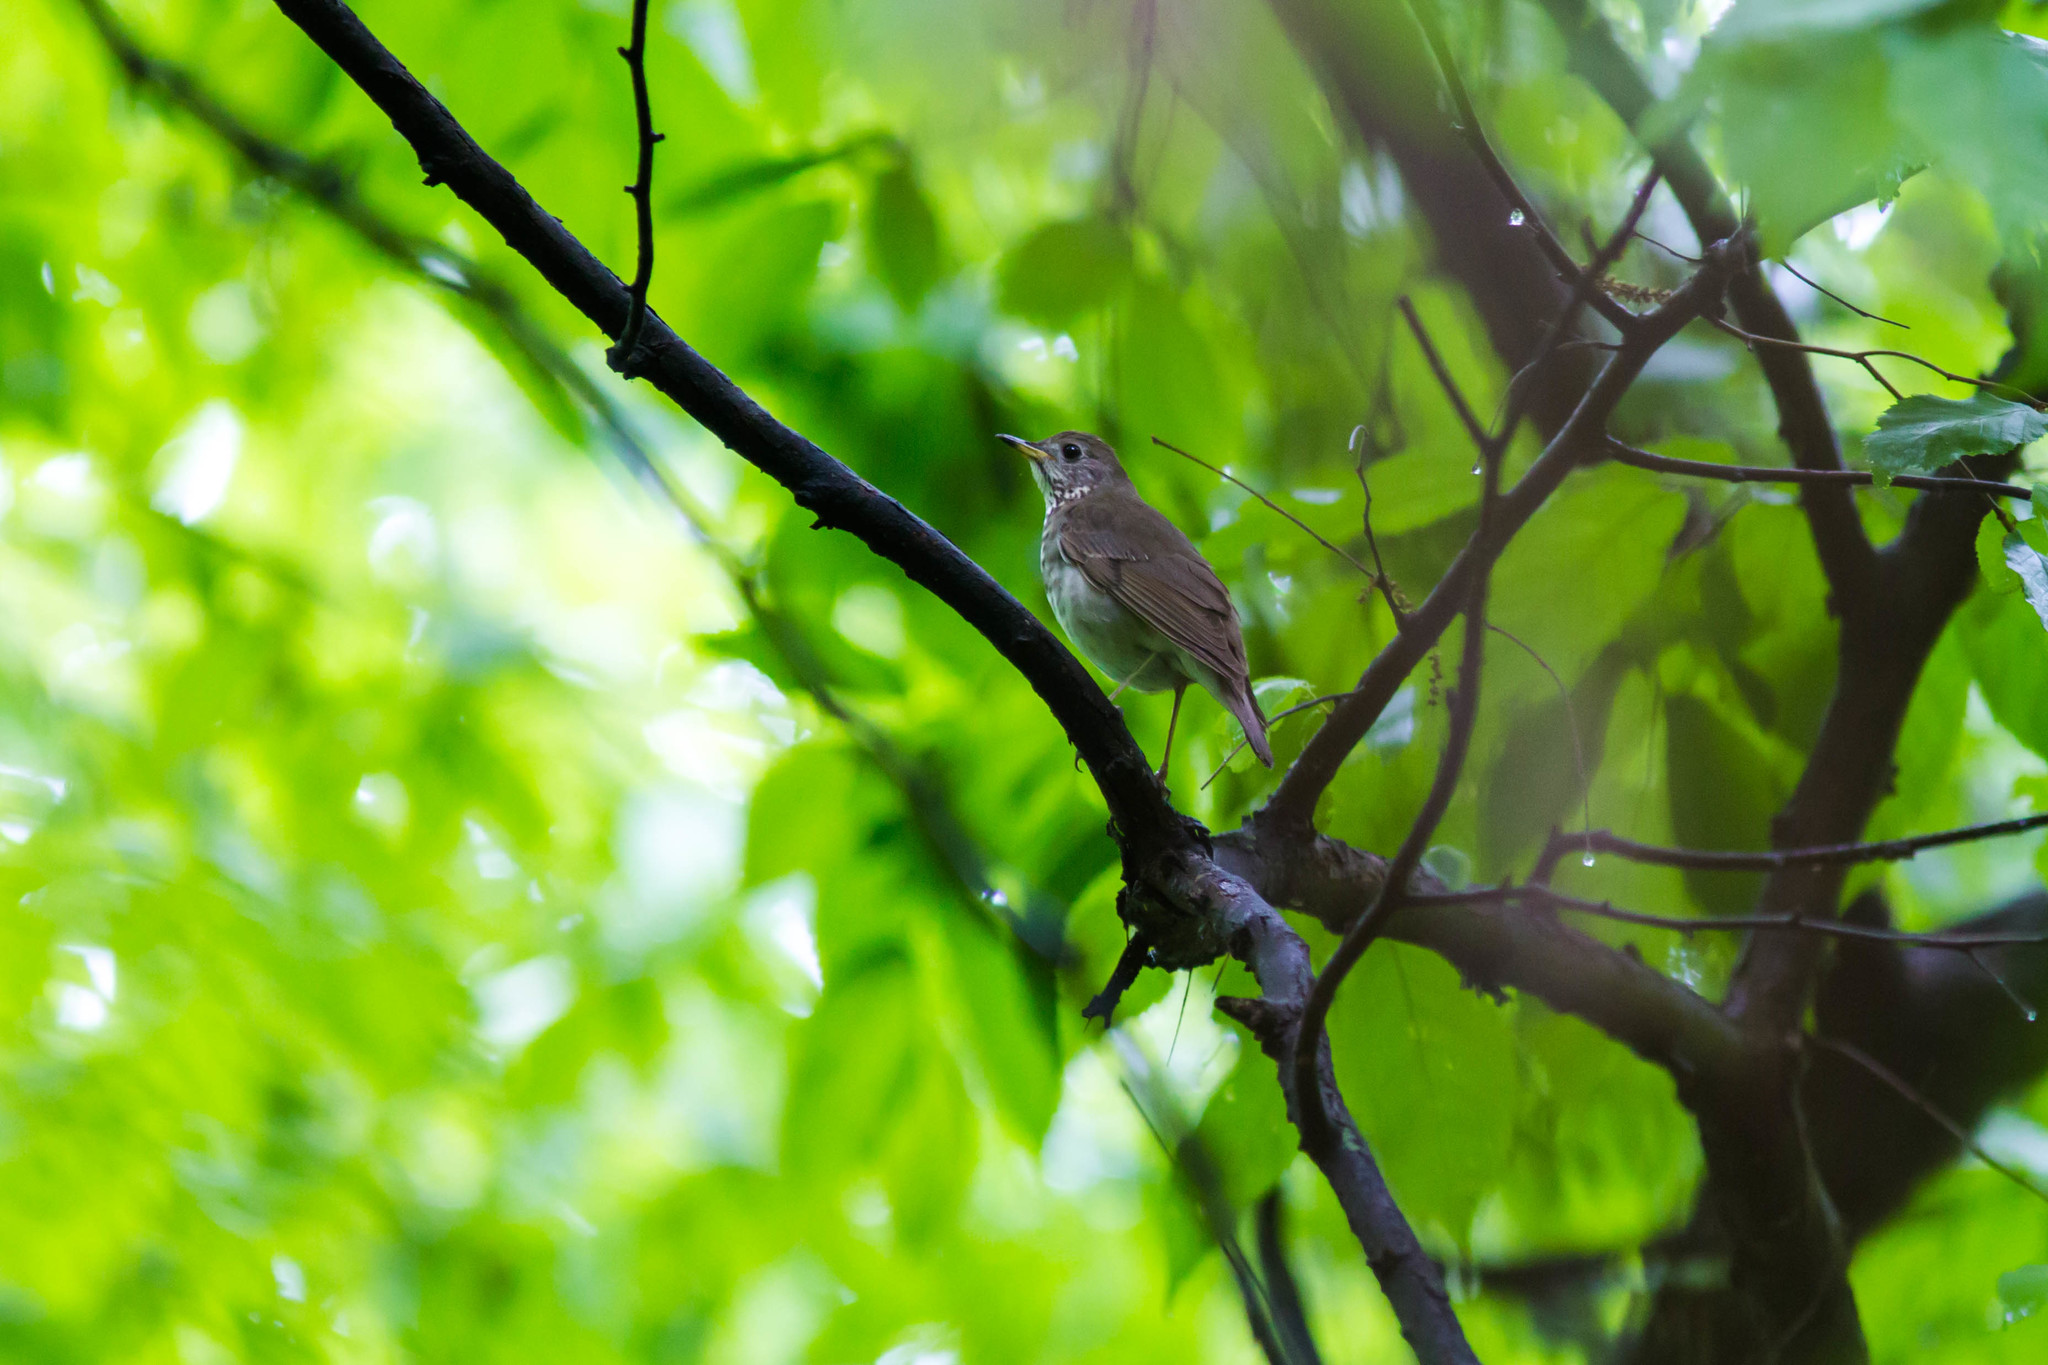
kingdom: Animalia
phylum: Chordata
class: Aves
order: Passeriformes
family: Turdidae
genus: Catharus
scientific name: Catharus minimus
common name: Grey-cheeked thrush
